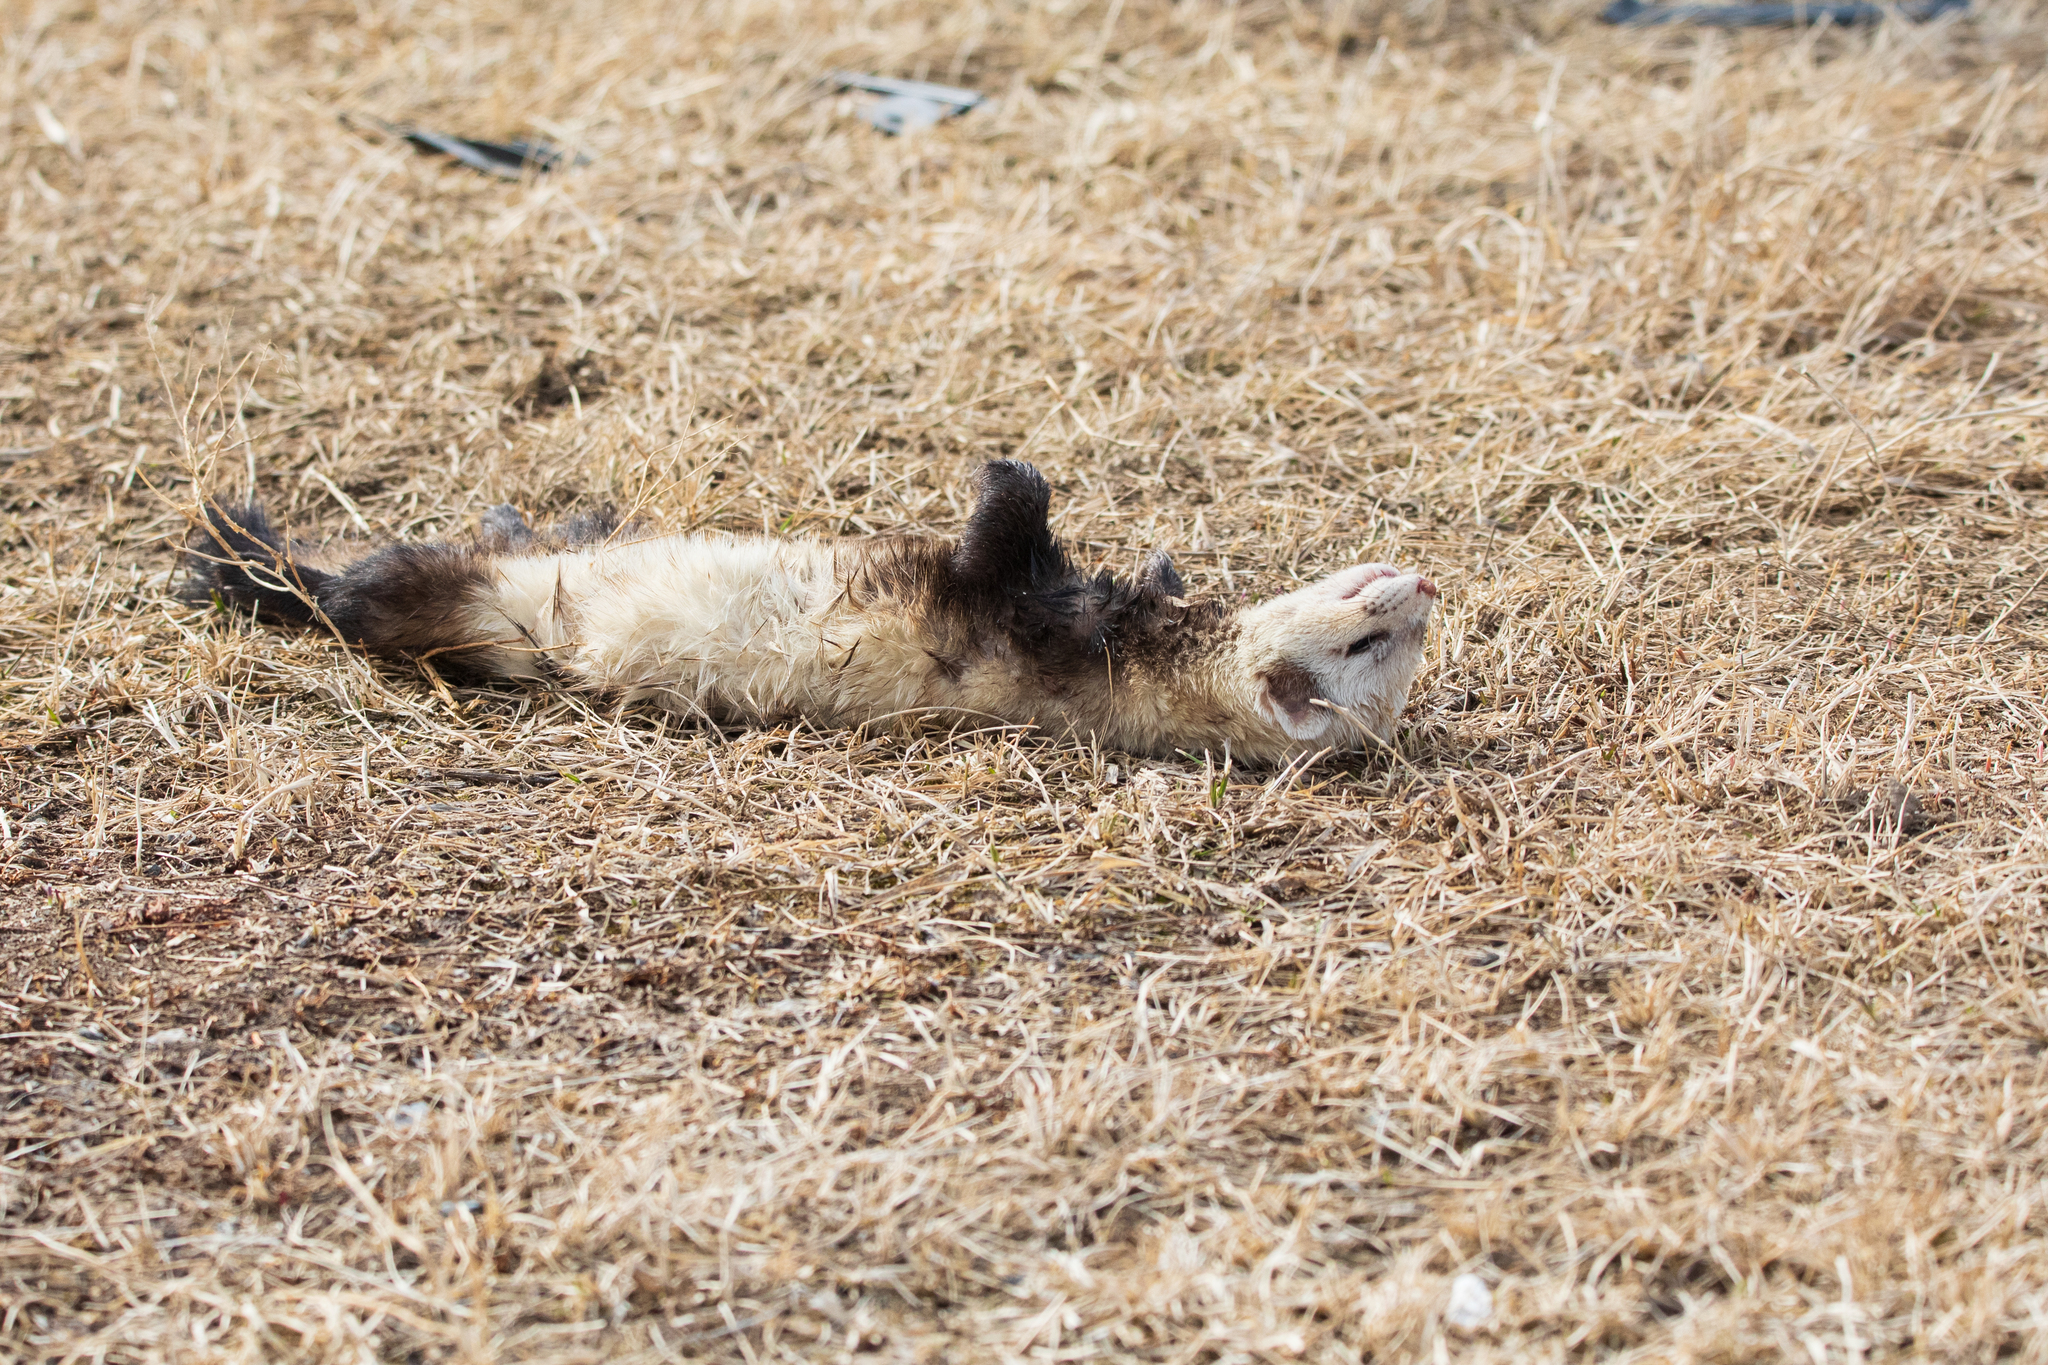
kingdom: Animalia
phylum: Chordata
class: Mammalia
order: Carnivora
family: Mustelidae
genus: Mustela
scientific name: Mustela putorius
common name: European polecat
